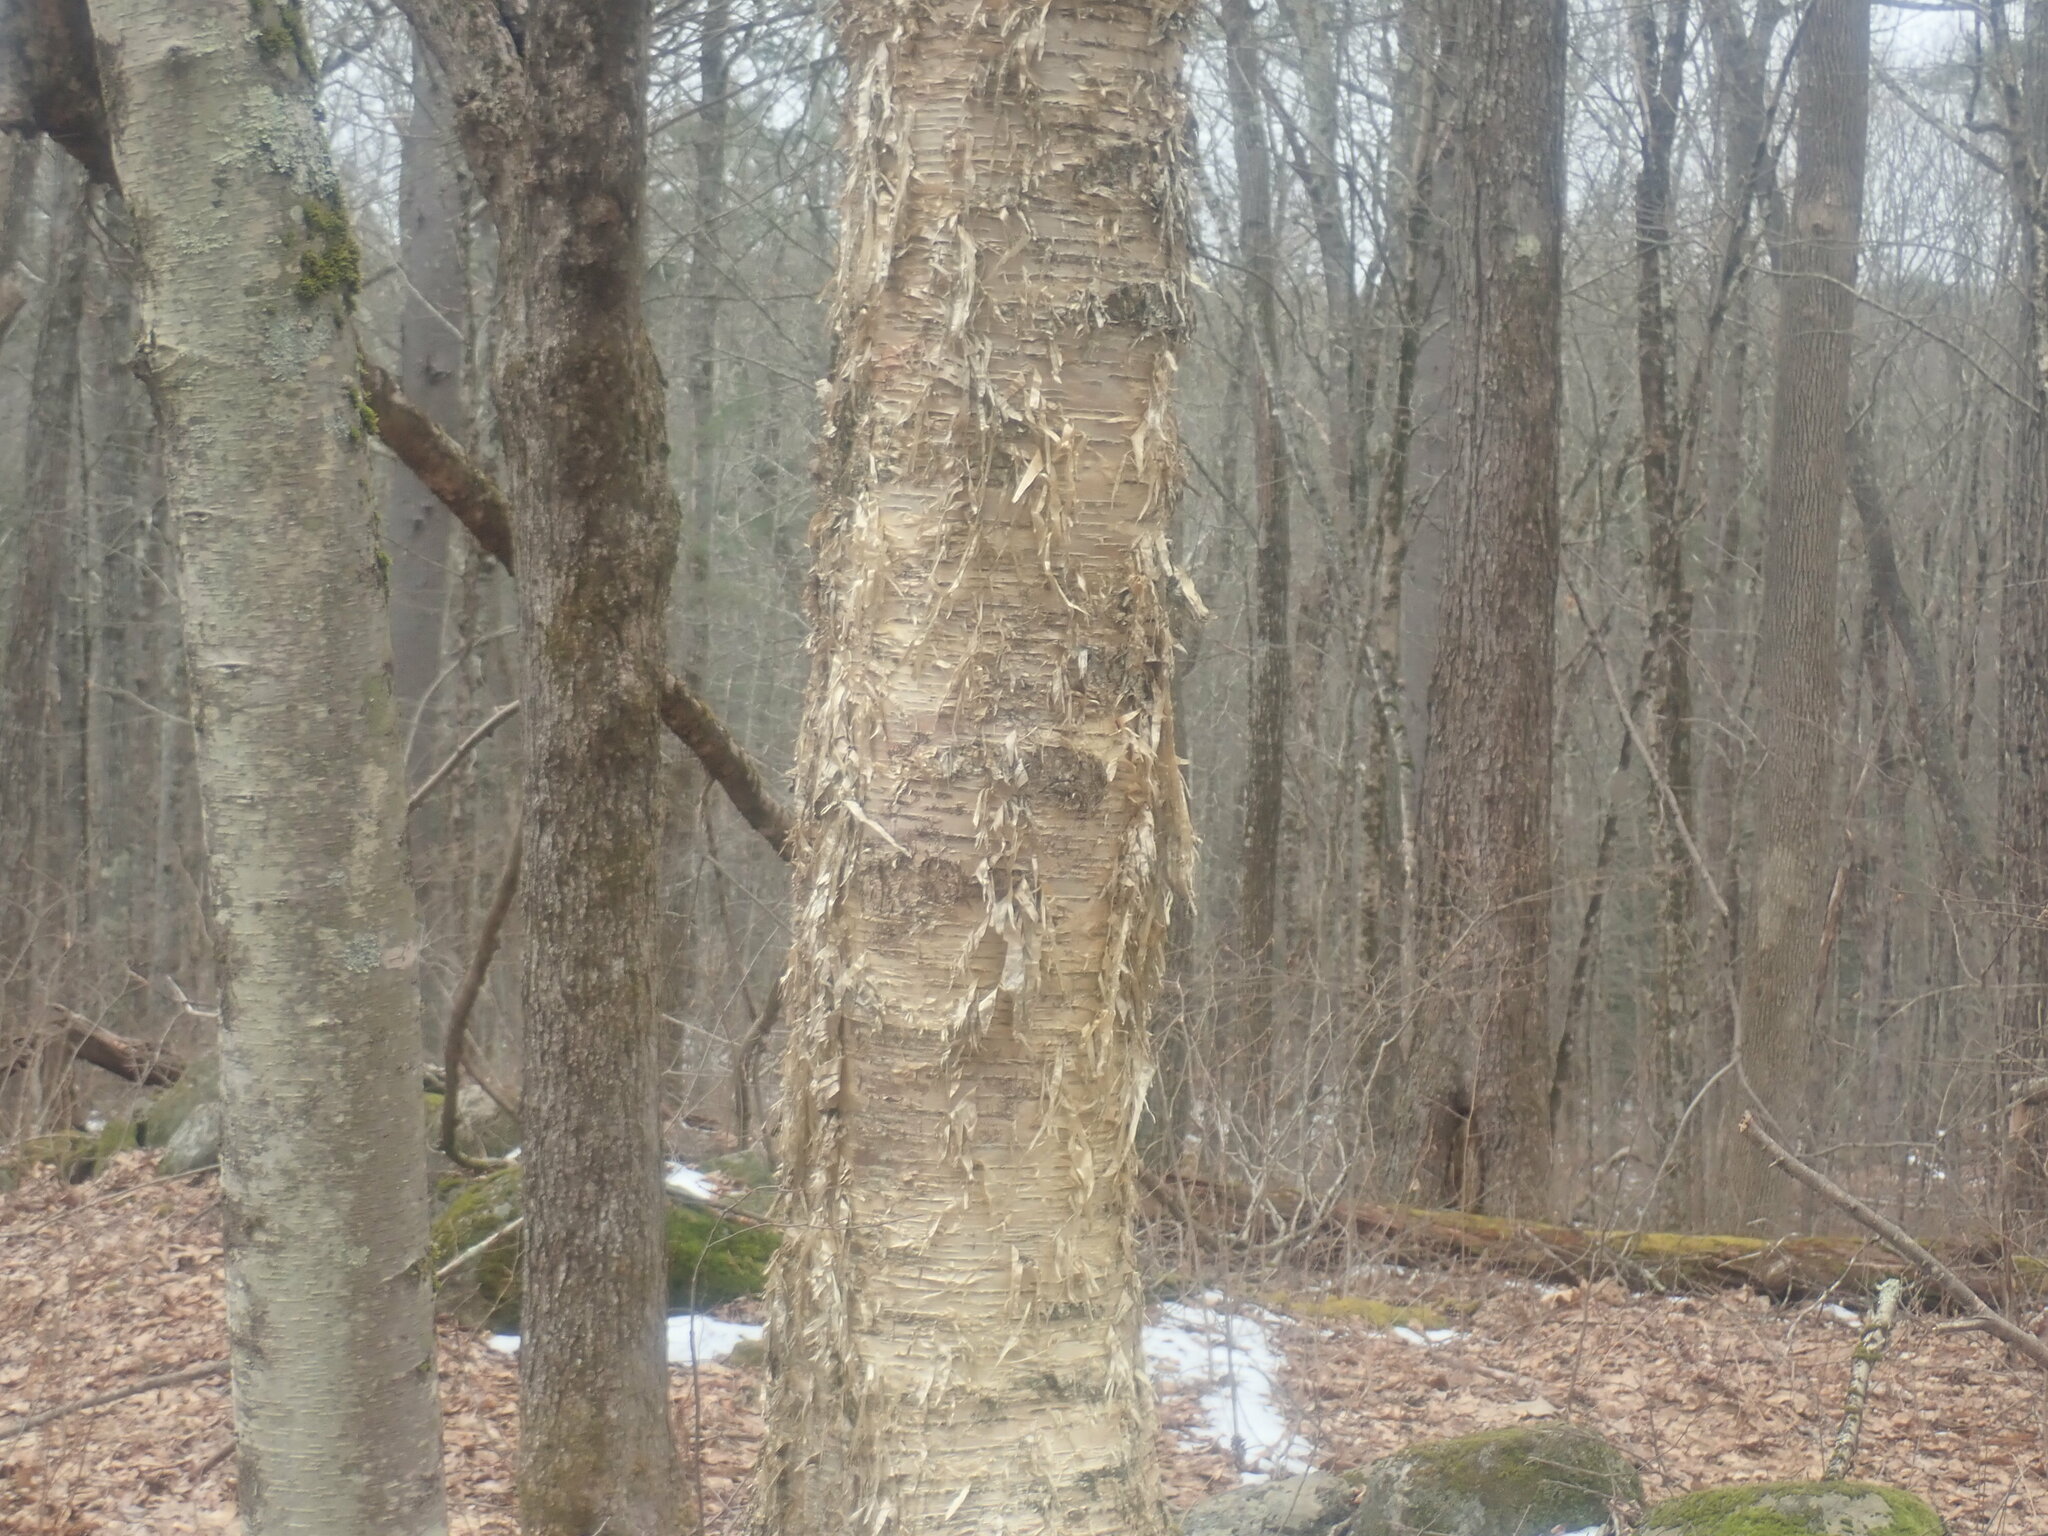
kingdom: Plantae
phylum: Tracheophyta
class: Magnoliopsida
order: Fagales
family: Betulaceae
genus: Betula
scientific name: Betula alleghaniensis
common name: Yellow birch
